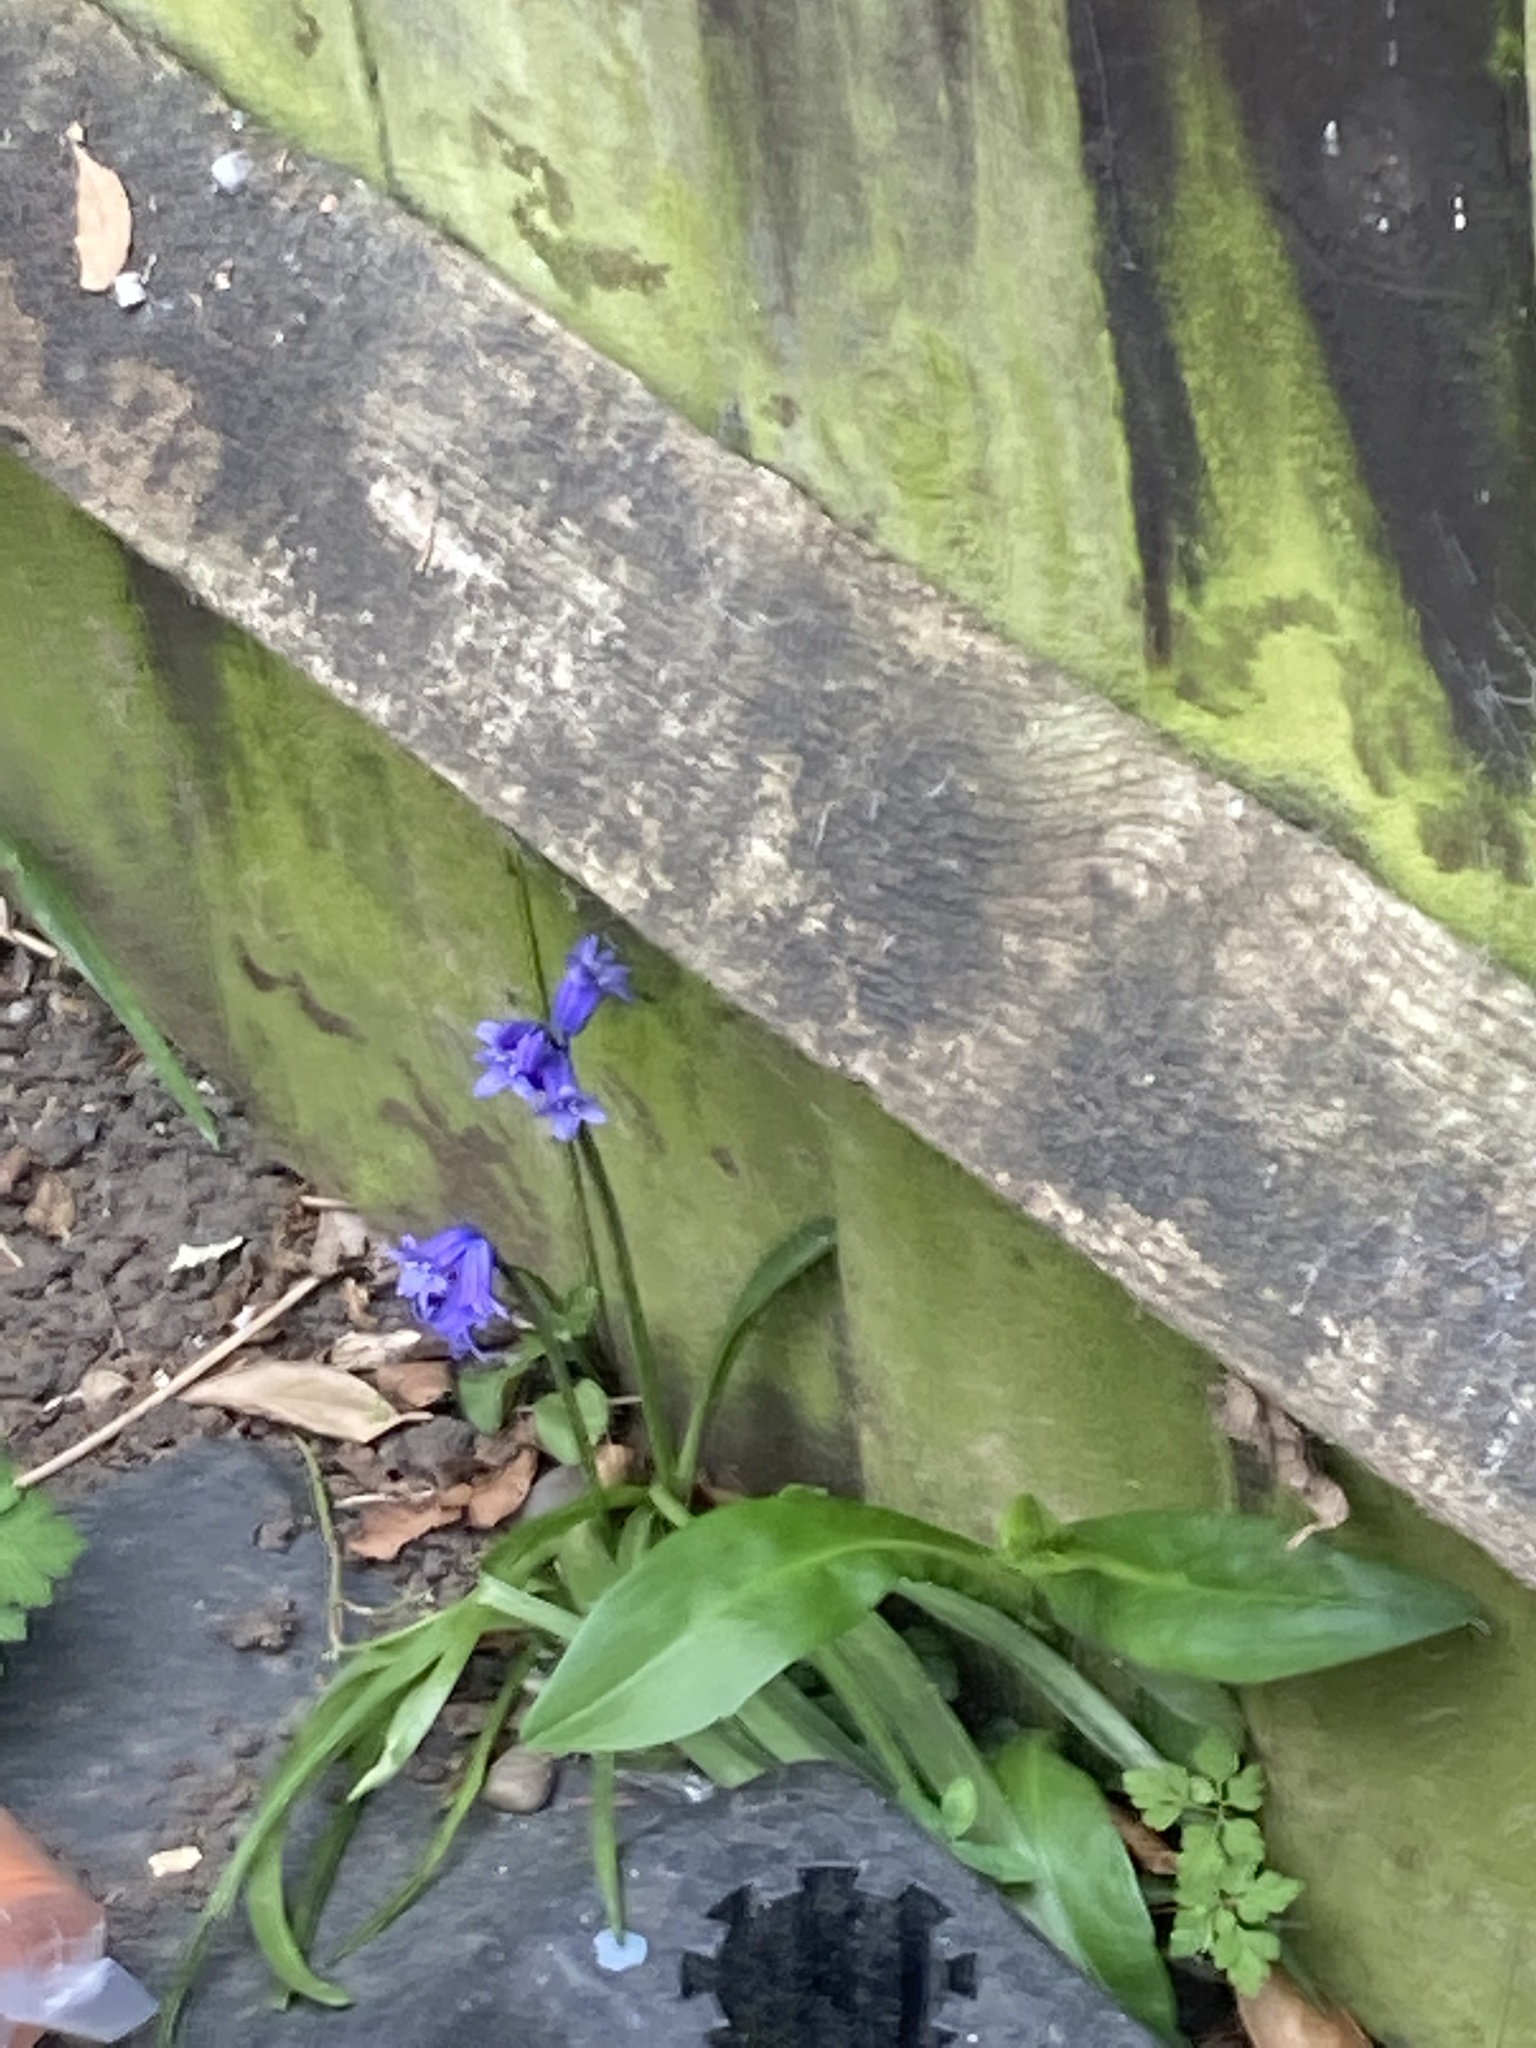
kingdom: Plantae
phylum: Tracheophyta
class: Liliopsida
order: Asparagales
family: Asparagaceae
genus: Hyacinthoides
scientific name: Hyacinthoides non-scripta
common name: Bluebell
